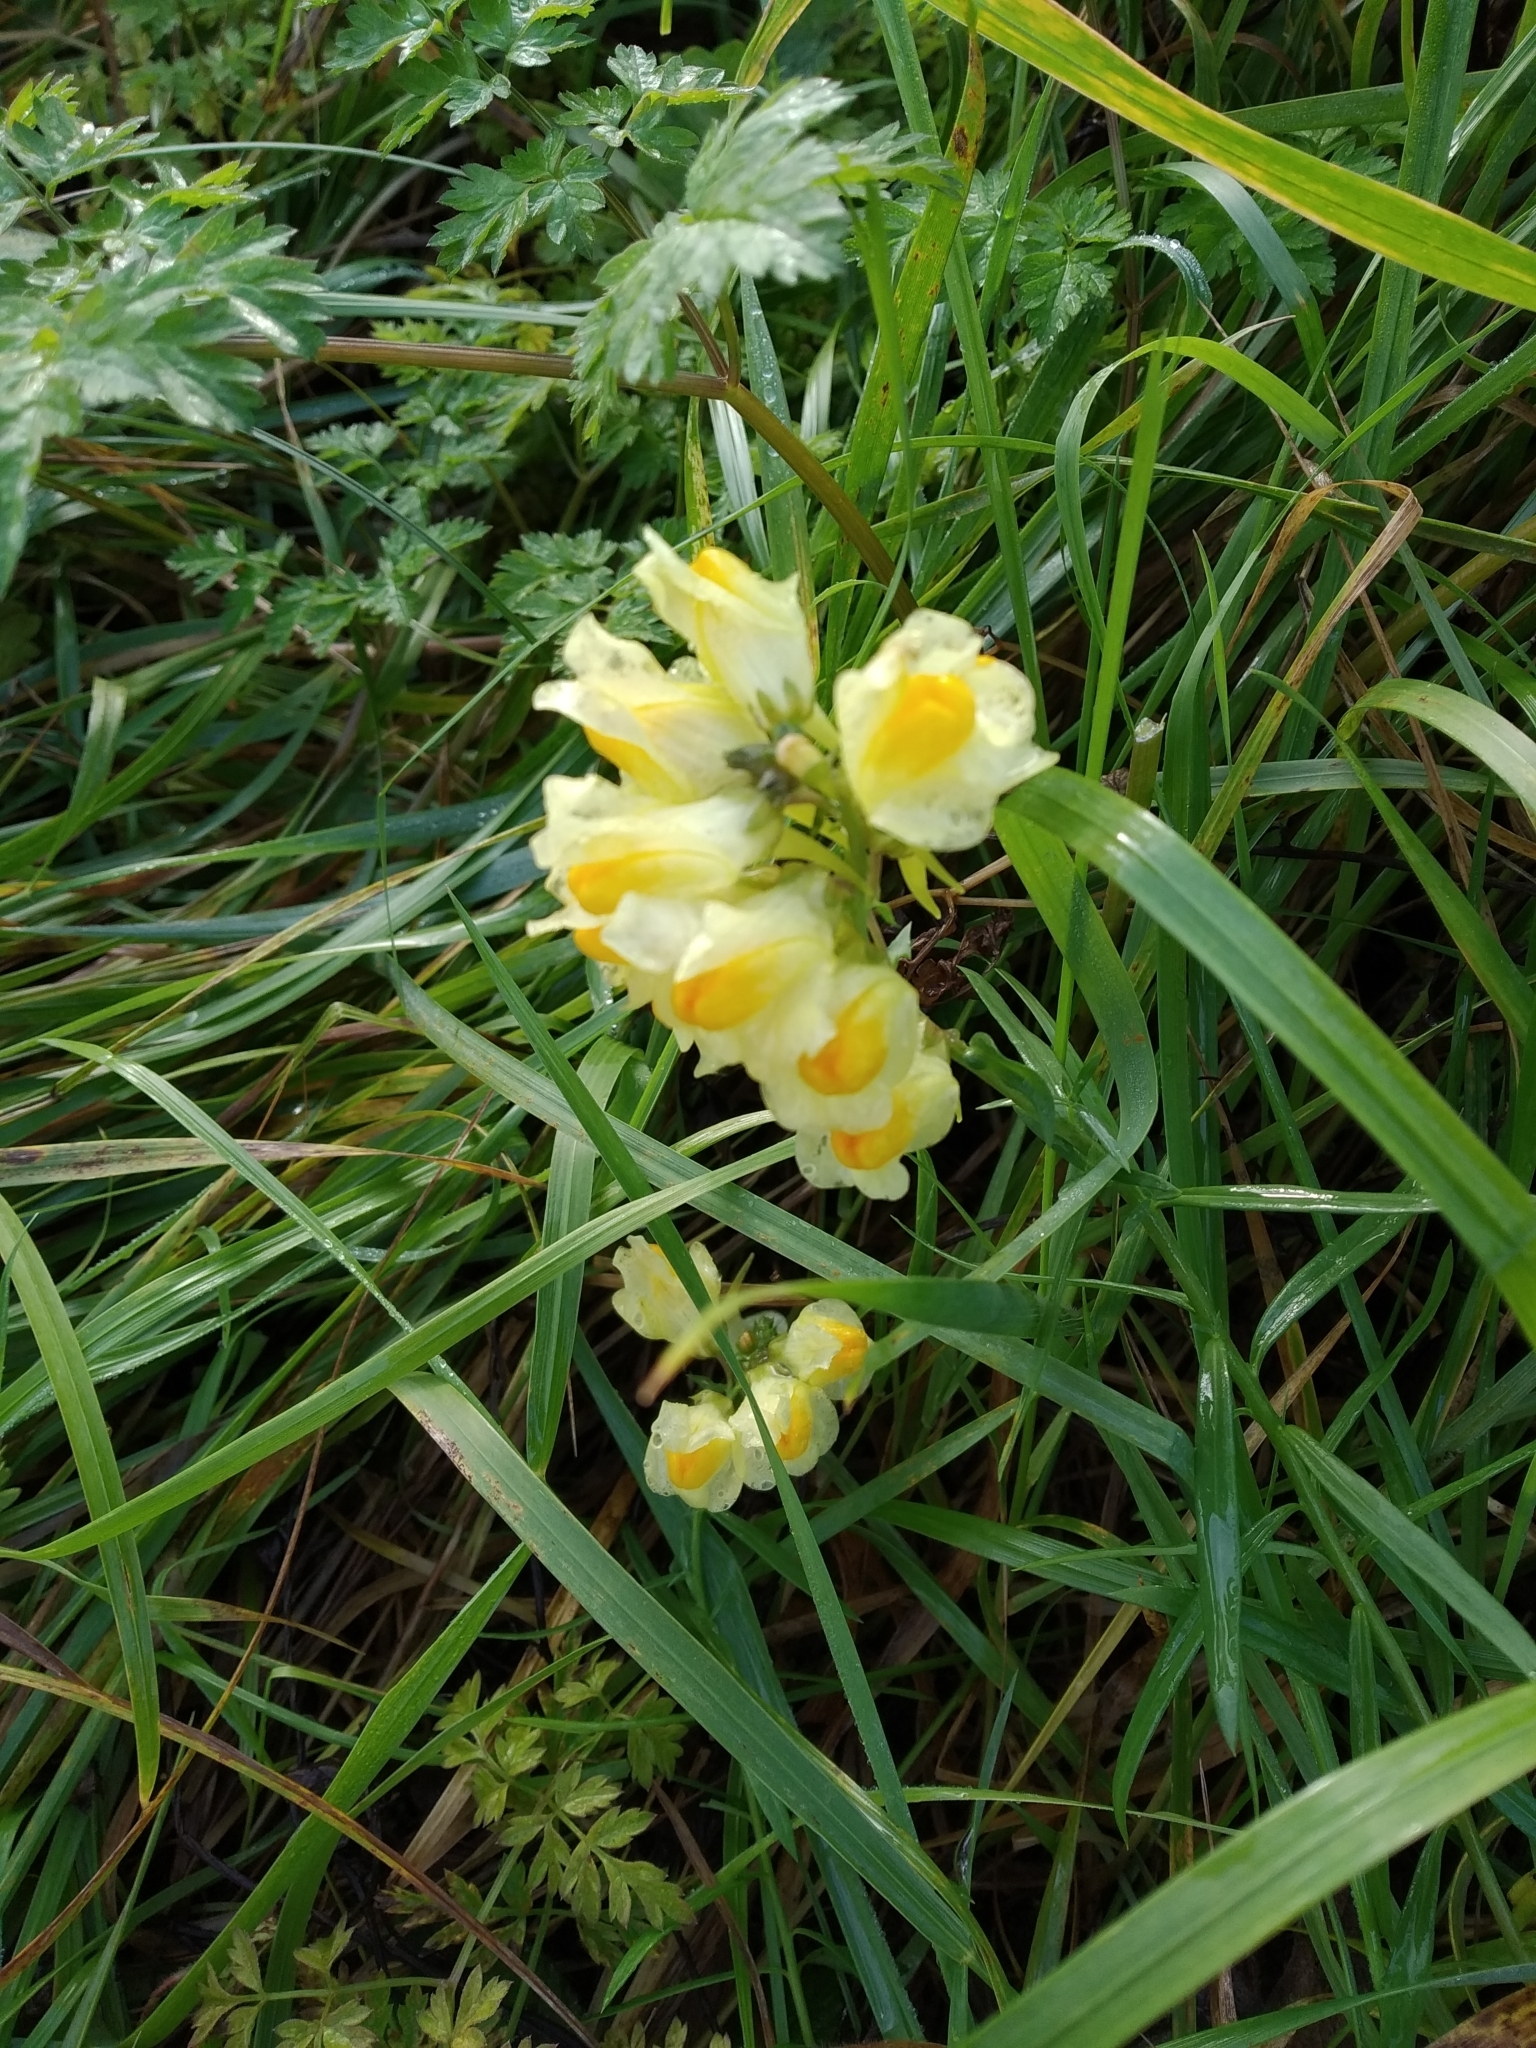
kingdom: Plantae
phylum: Tracheophyta
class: Magnoliopsida
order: Lamiales
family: Plantaginaceae
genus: Linaria
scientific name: Linaria vulgaris
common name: Butter and eggs
